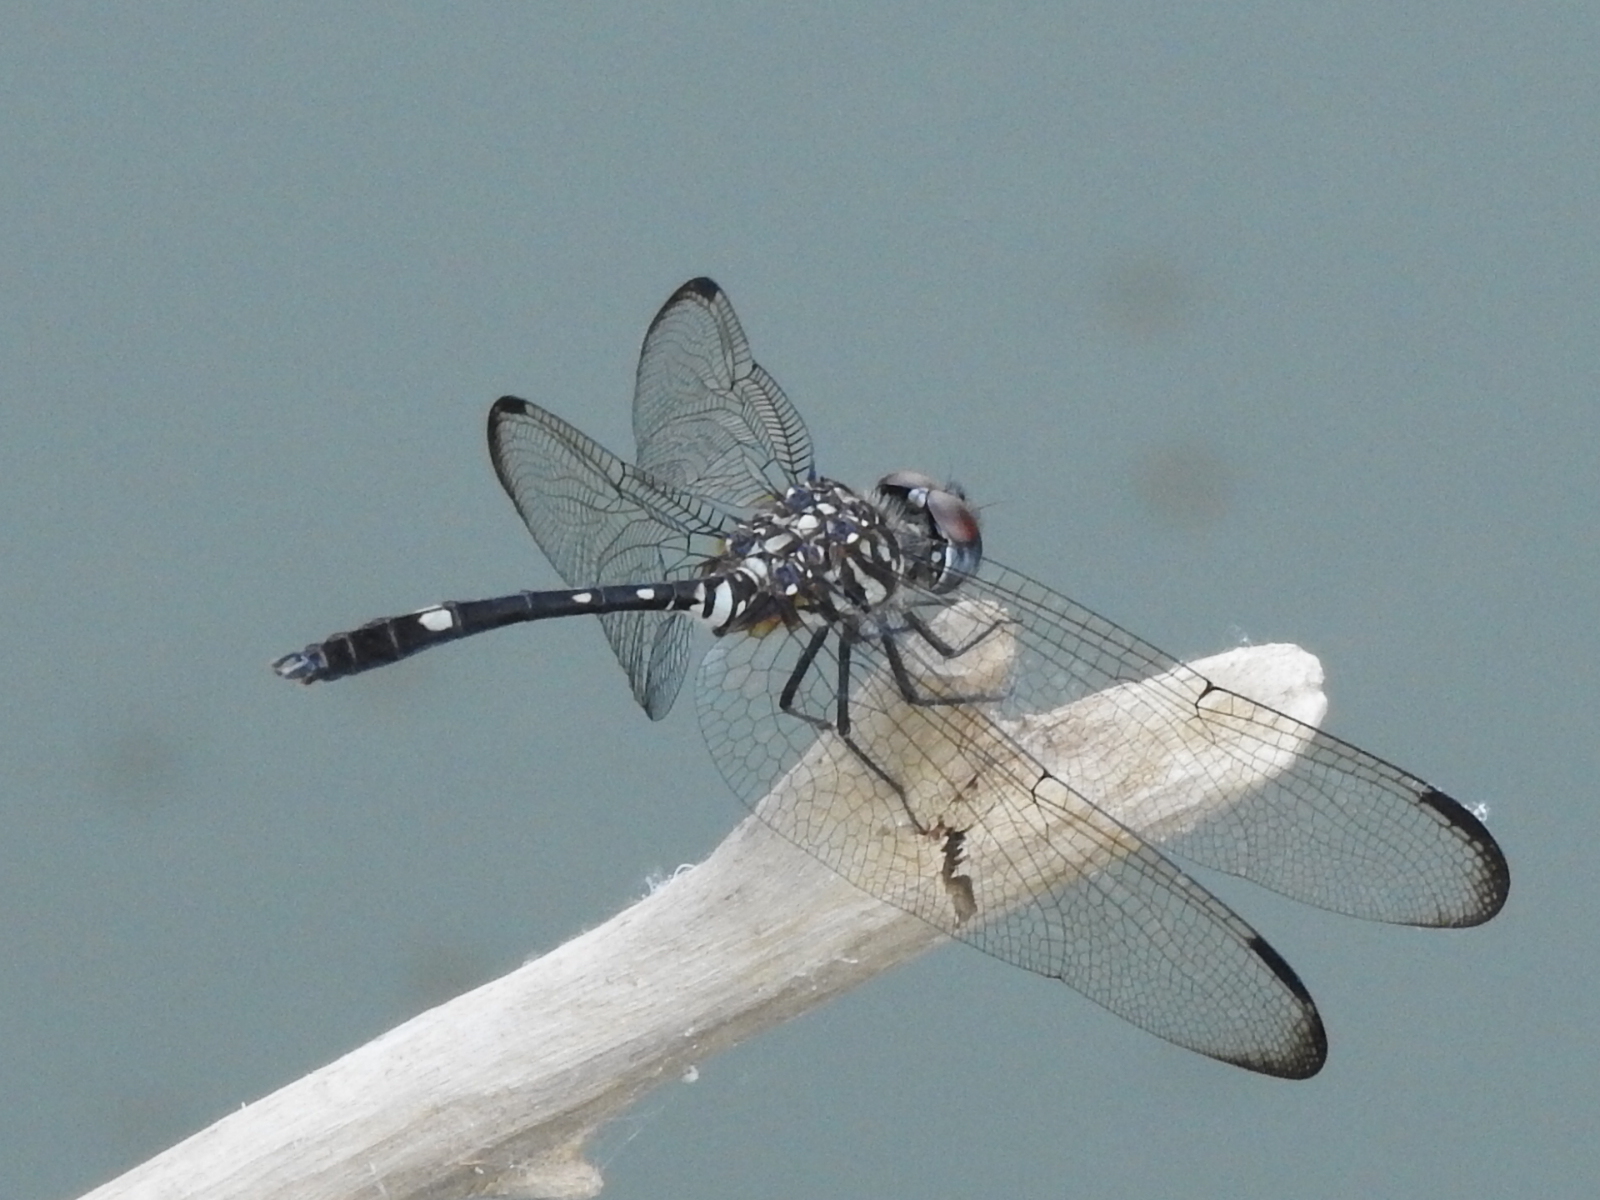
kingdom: Animalia
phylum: Arthropoda
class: Insecta
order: Odonata
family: Libellulidae
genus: Dythemis
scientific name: Dythemis velox
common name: Swift setwing
